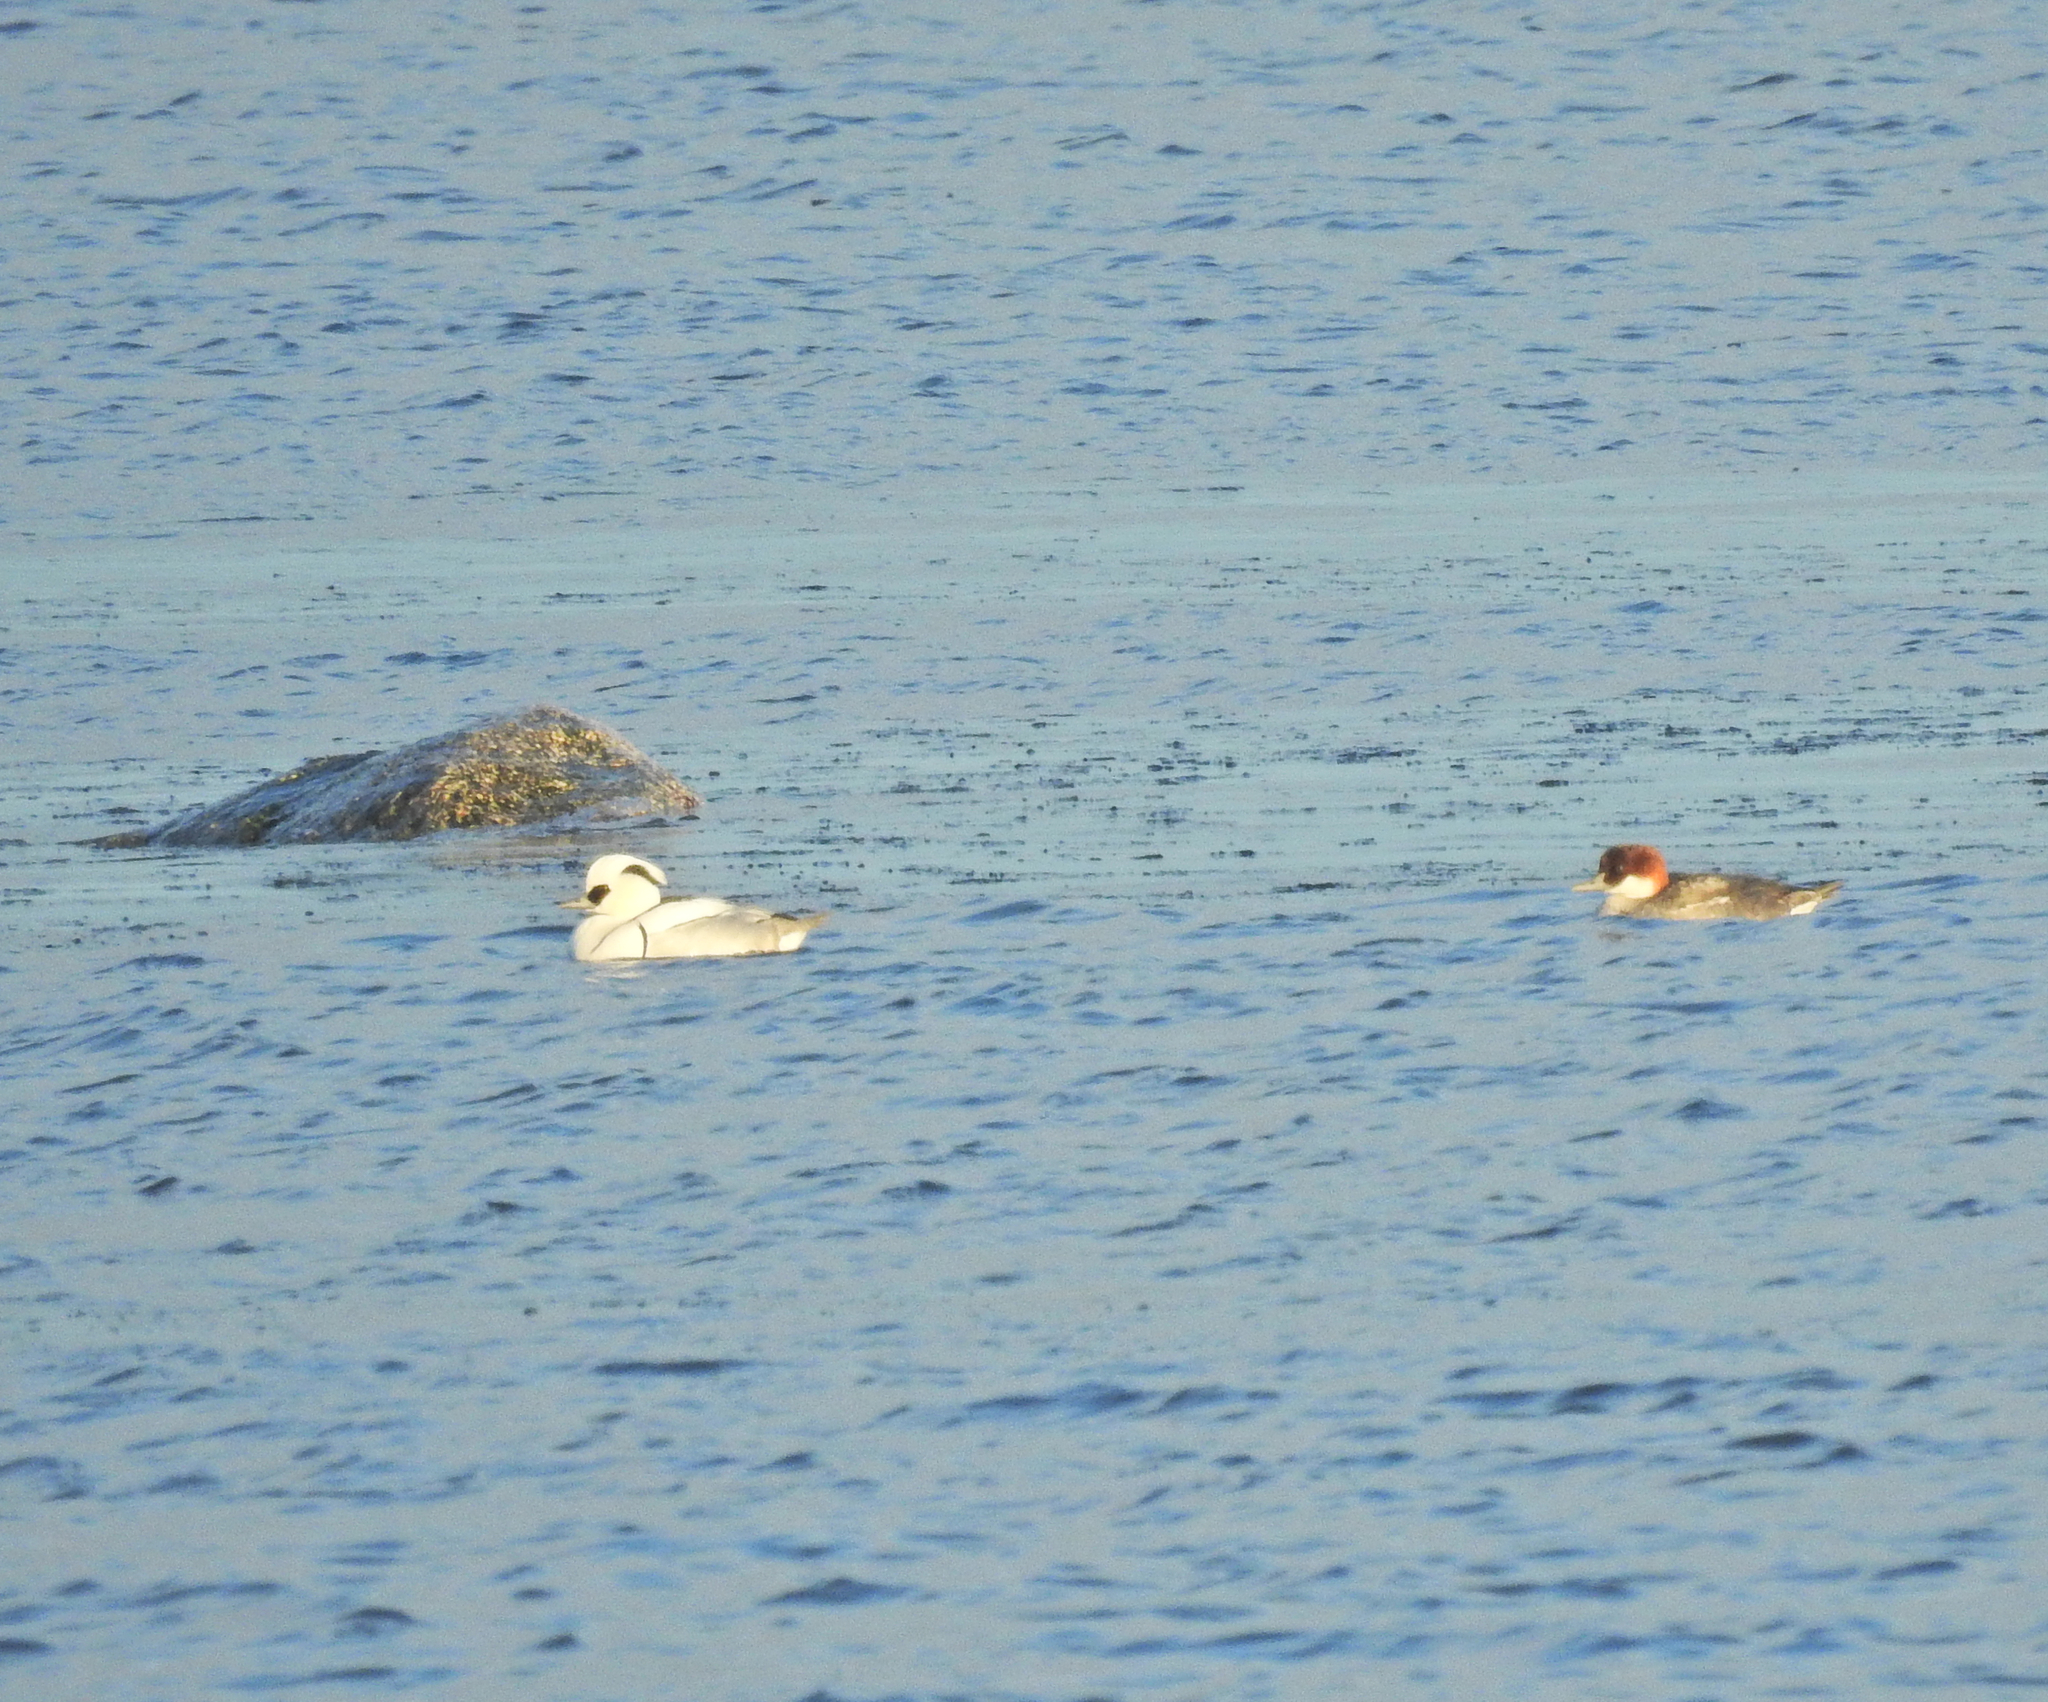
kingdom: Animalia
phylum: Chordata
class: Aves
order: Anseriformes
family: Anatidae
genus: Mergellus
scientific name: Mergellus albellus
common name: Smew
